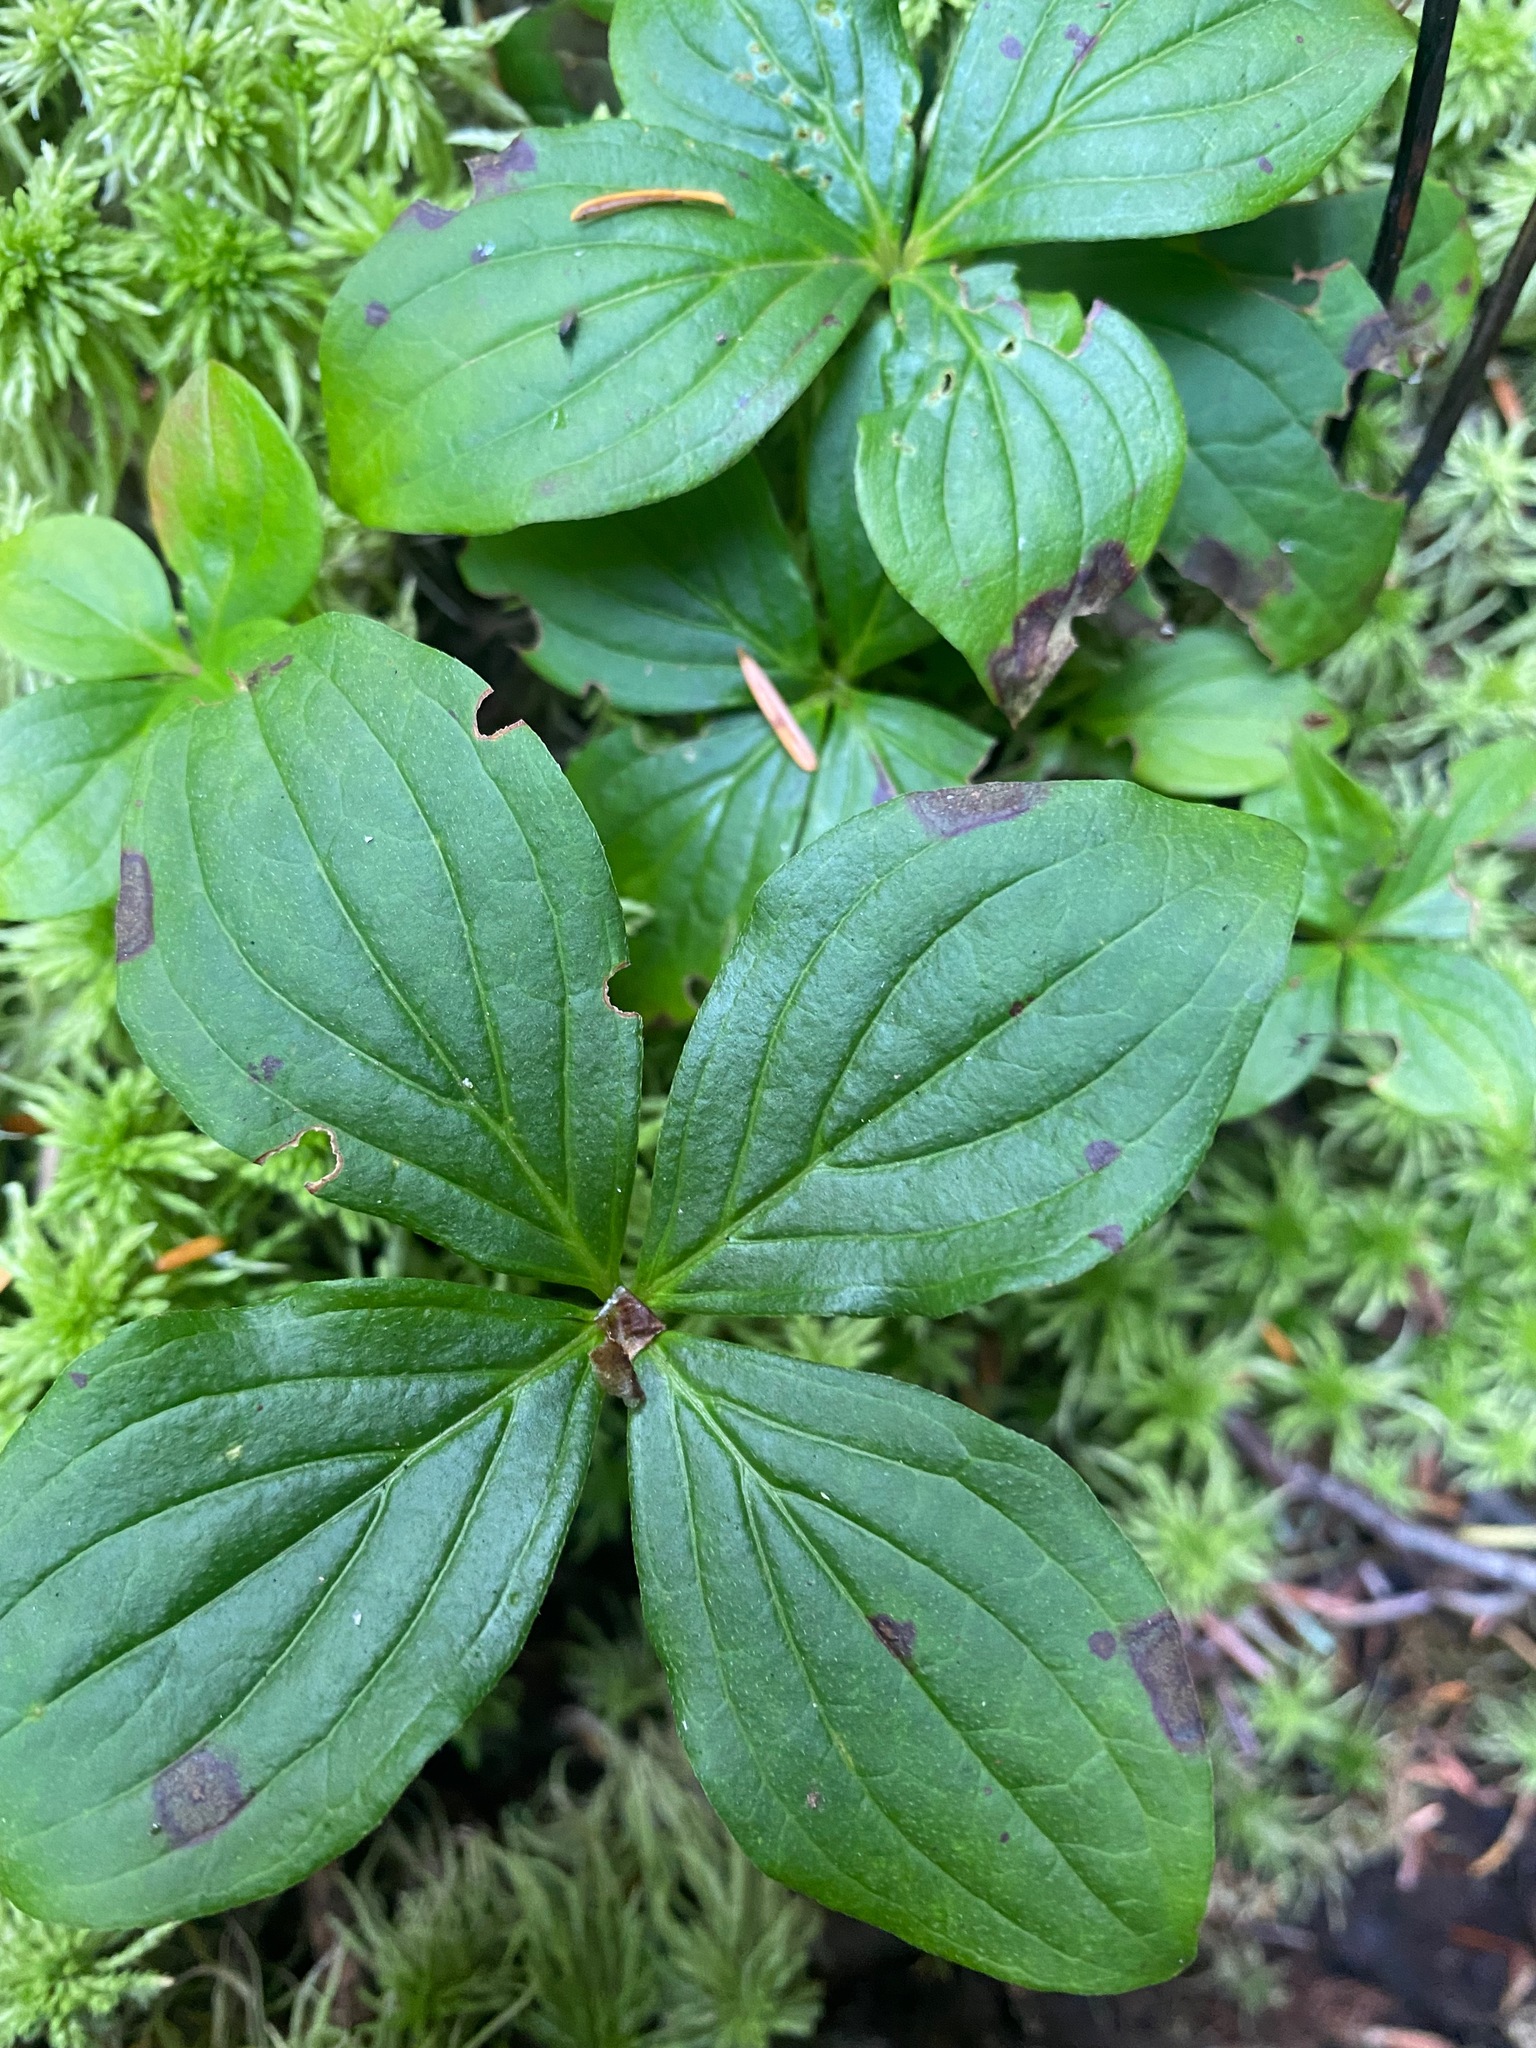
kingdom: Plantae
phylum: Tracheophyta
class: Magnoliopsida
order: Cornales
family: Cornaceae
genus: Cornus
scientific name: Cornus unalaschkensis
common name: Alaska bunchberry
